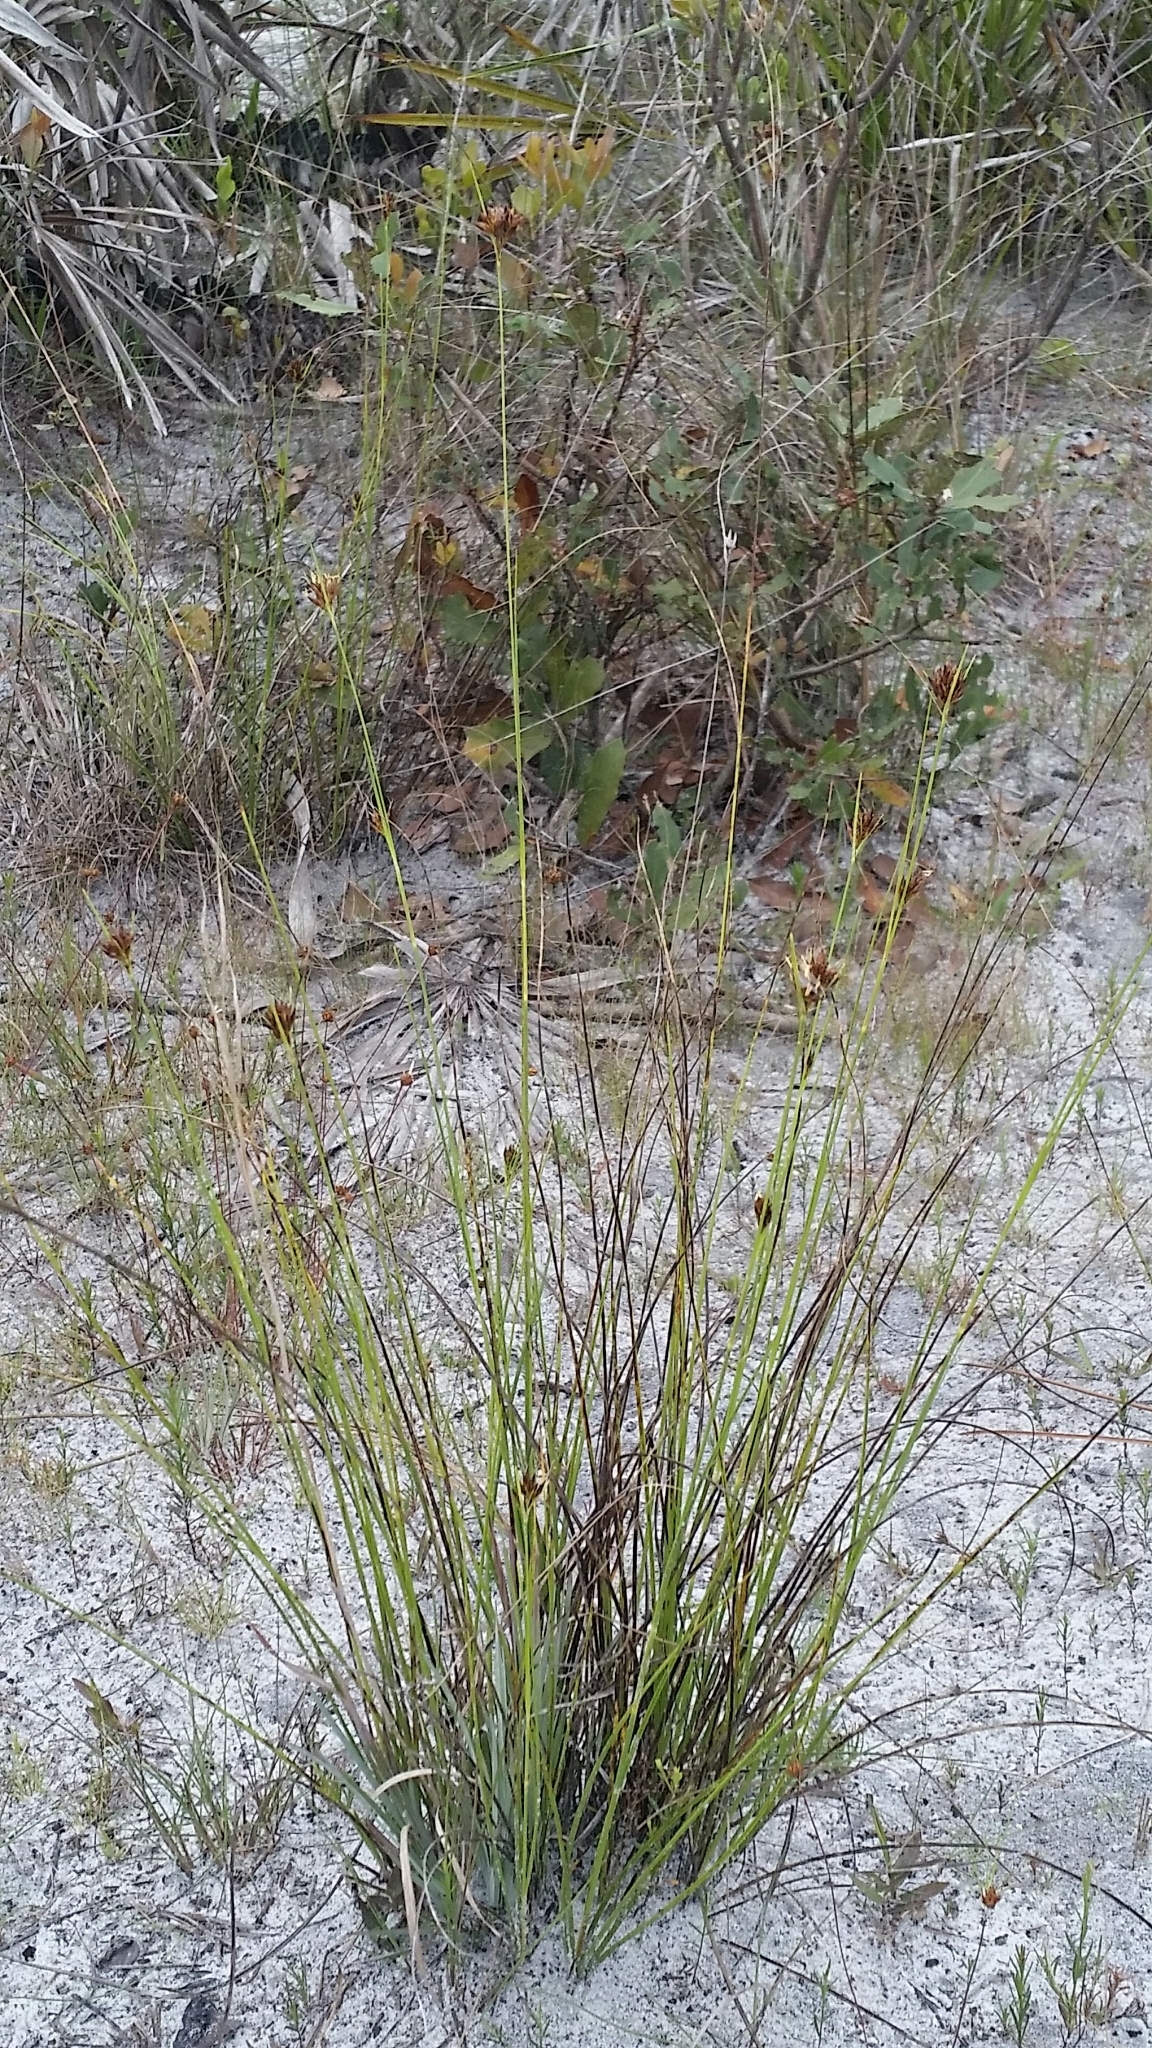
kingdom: Plantae
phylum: Tracheophyta
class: Liliopsida
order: Poales
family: Cyperaceae
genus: Rhynchospora
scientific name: Rhynchospora intermedia
